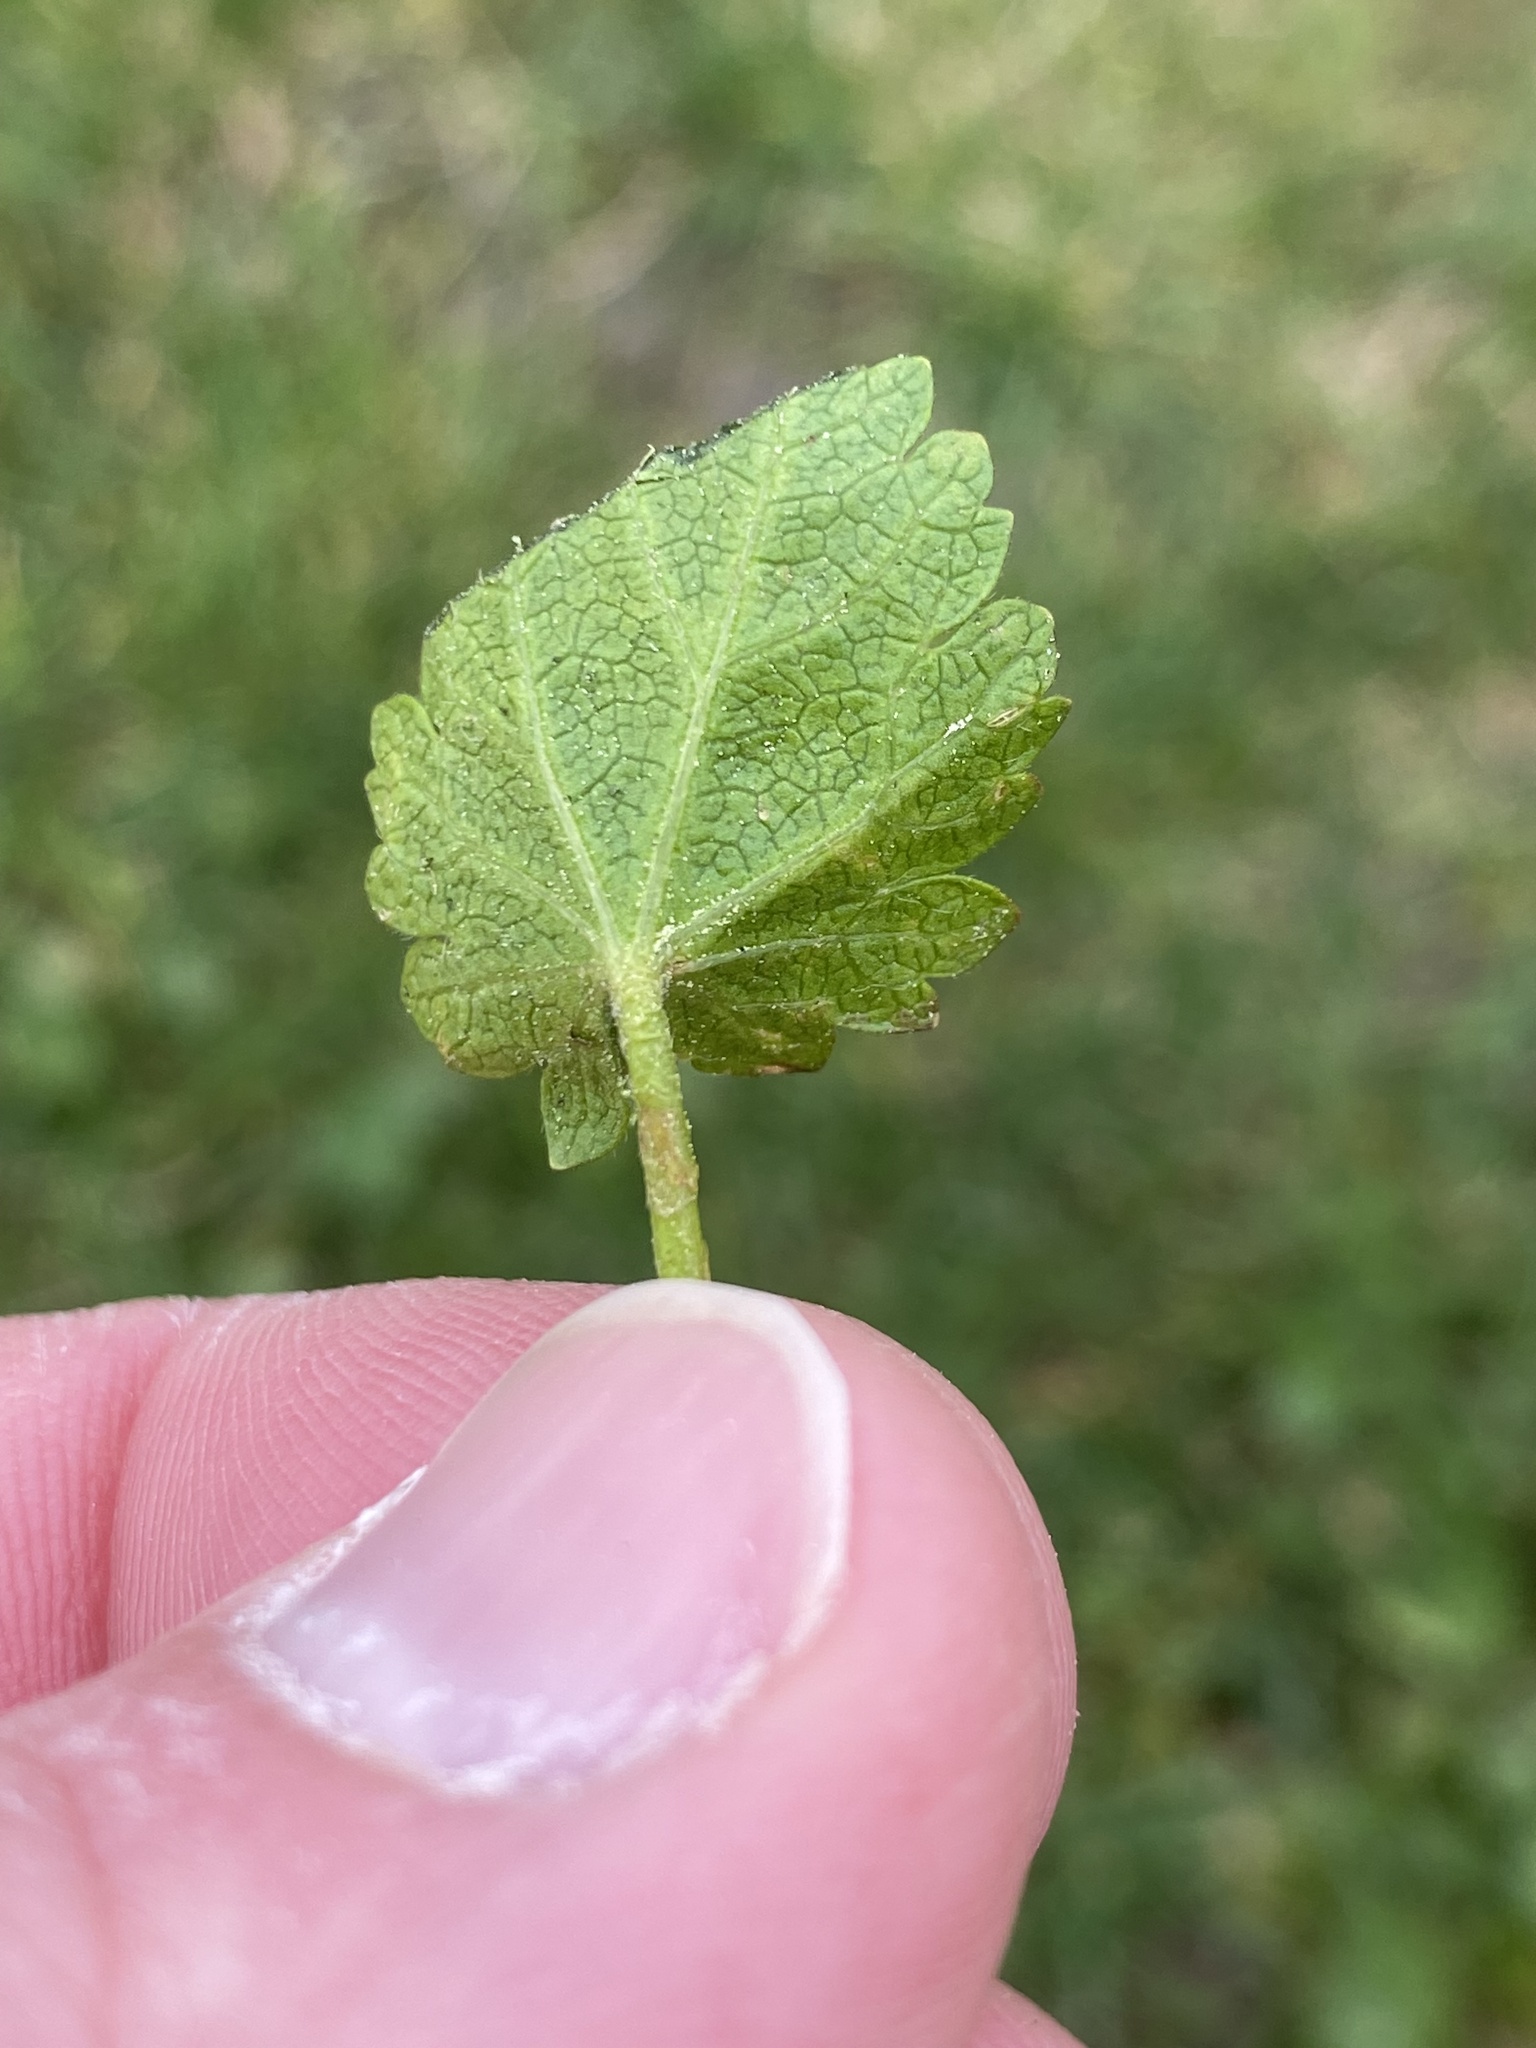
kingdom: Plantae
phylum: Tracheophyta
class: Magnoliopsida
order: Malvales
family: Malvaceae
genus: Modiola
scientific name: Modiola caroliniana
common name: Carolina bristlemallow
